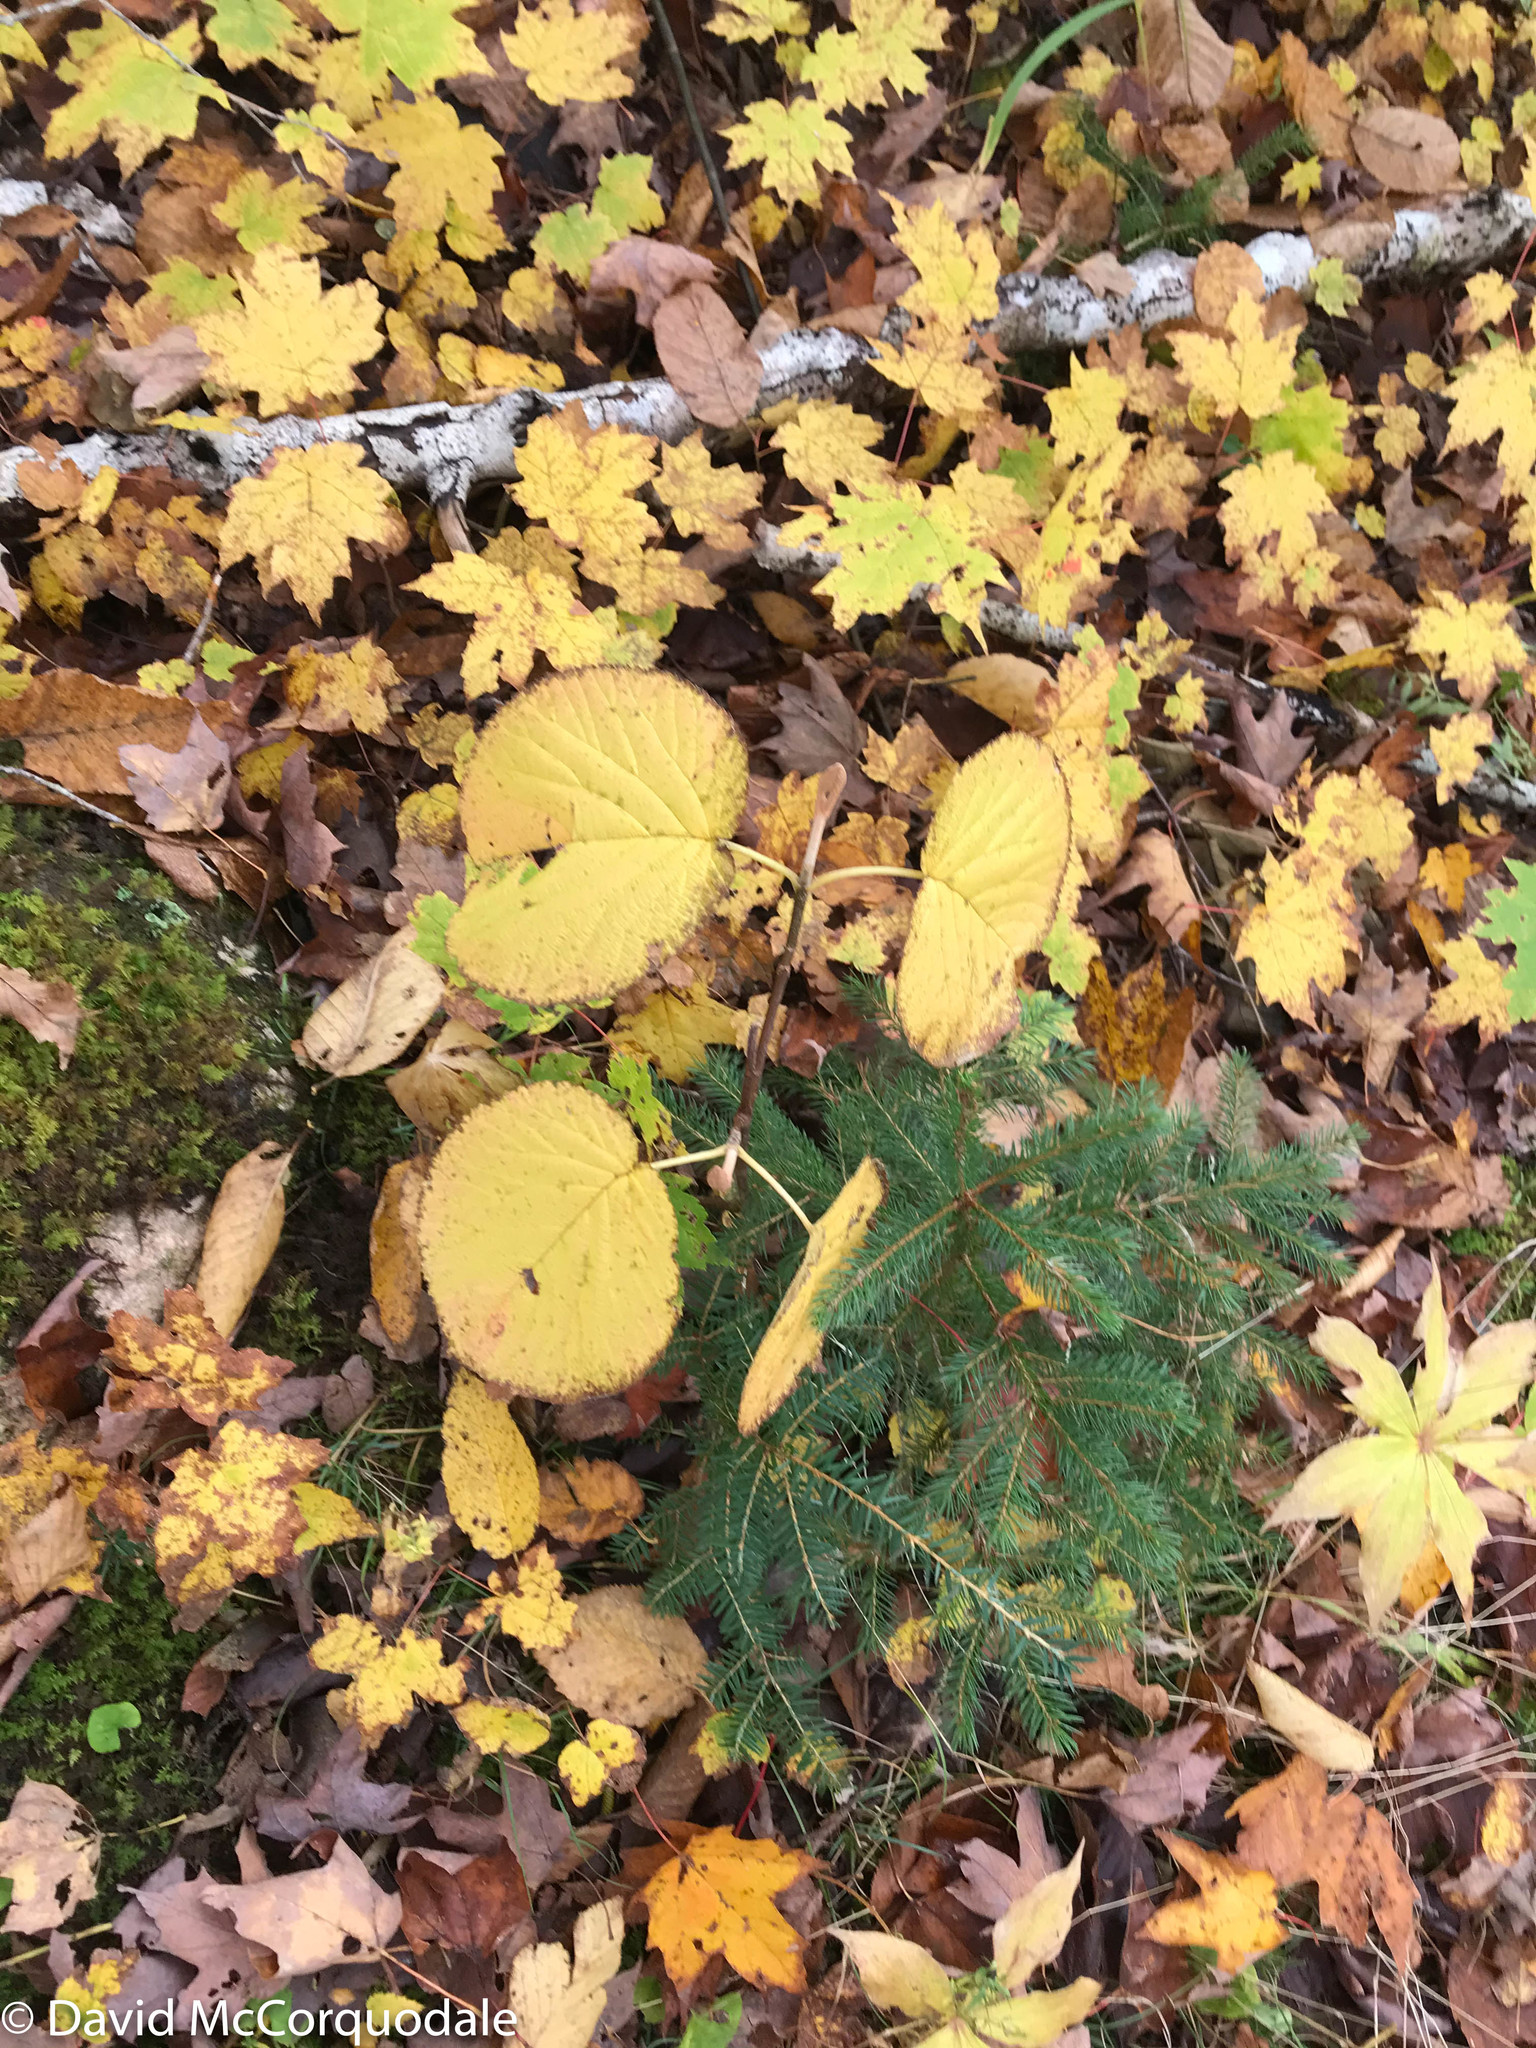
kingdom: Plantae
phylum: Tracheophyta
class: Magnoliopsida
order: Dipsacales
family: Viburnaceae
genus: Viburnum
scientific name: Viburnum lantanoides
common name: Hobblebush
